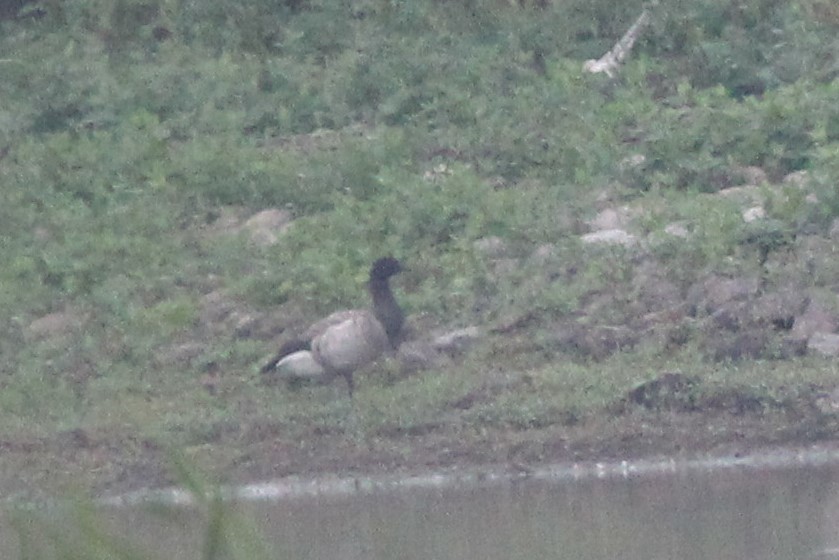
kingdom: Animalia
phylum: Chordata
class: Aves
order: Anseriformes
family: Anatidae
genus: Branta
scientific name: Branta bernicla
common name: Brant goose
